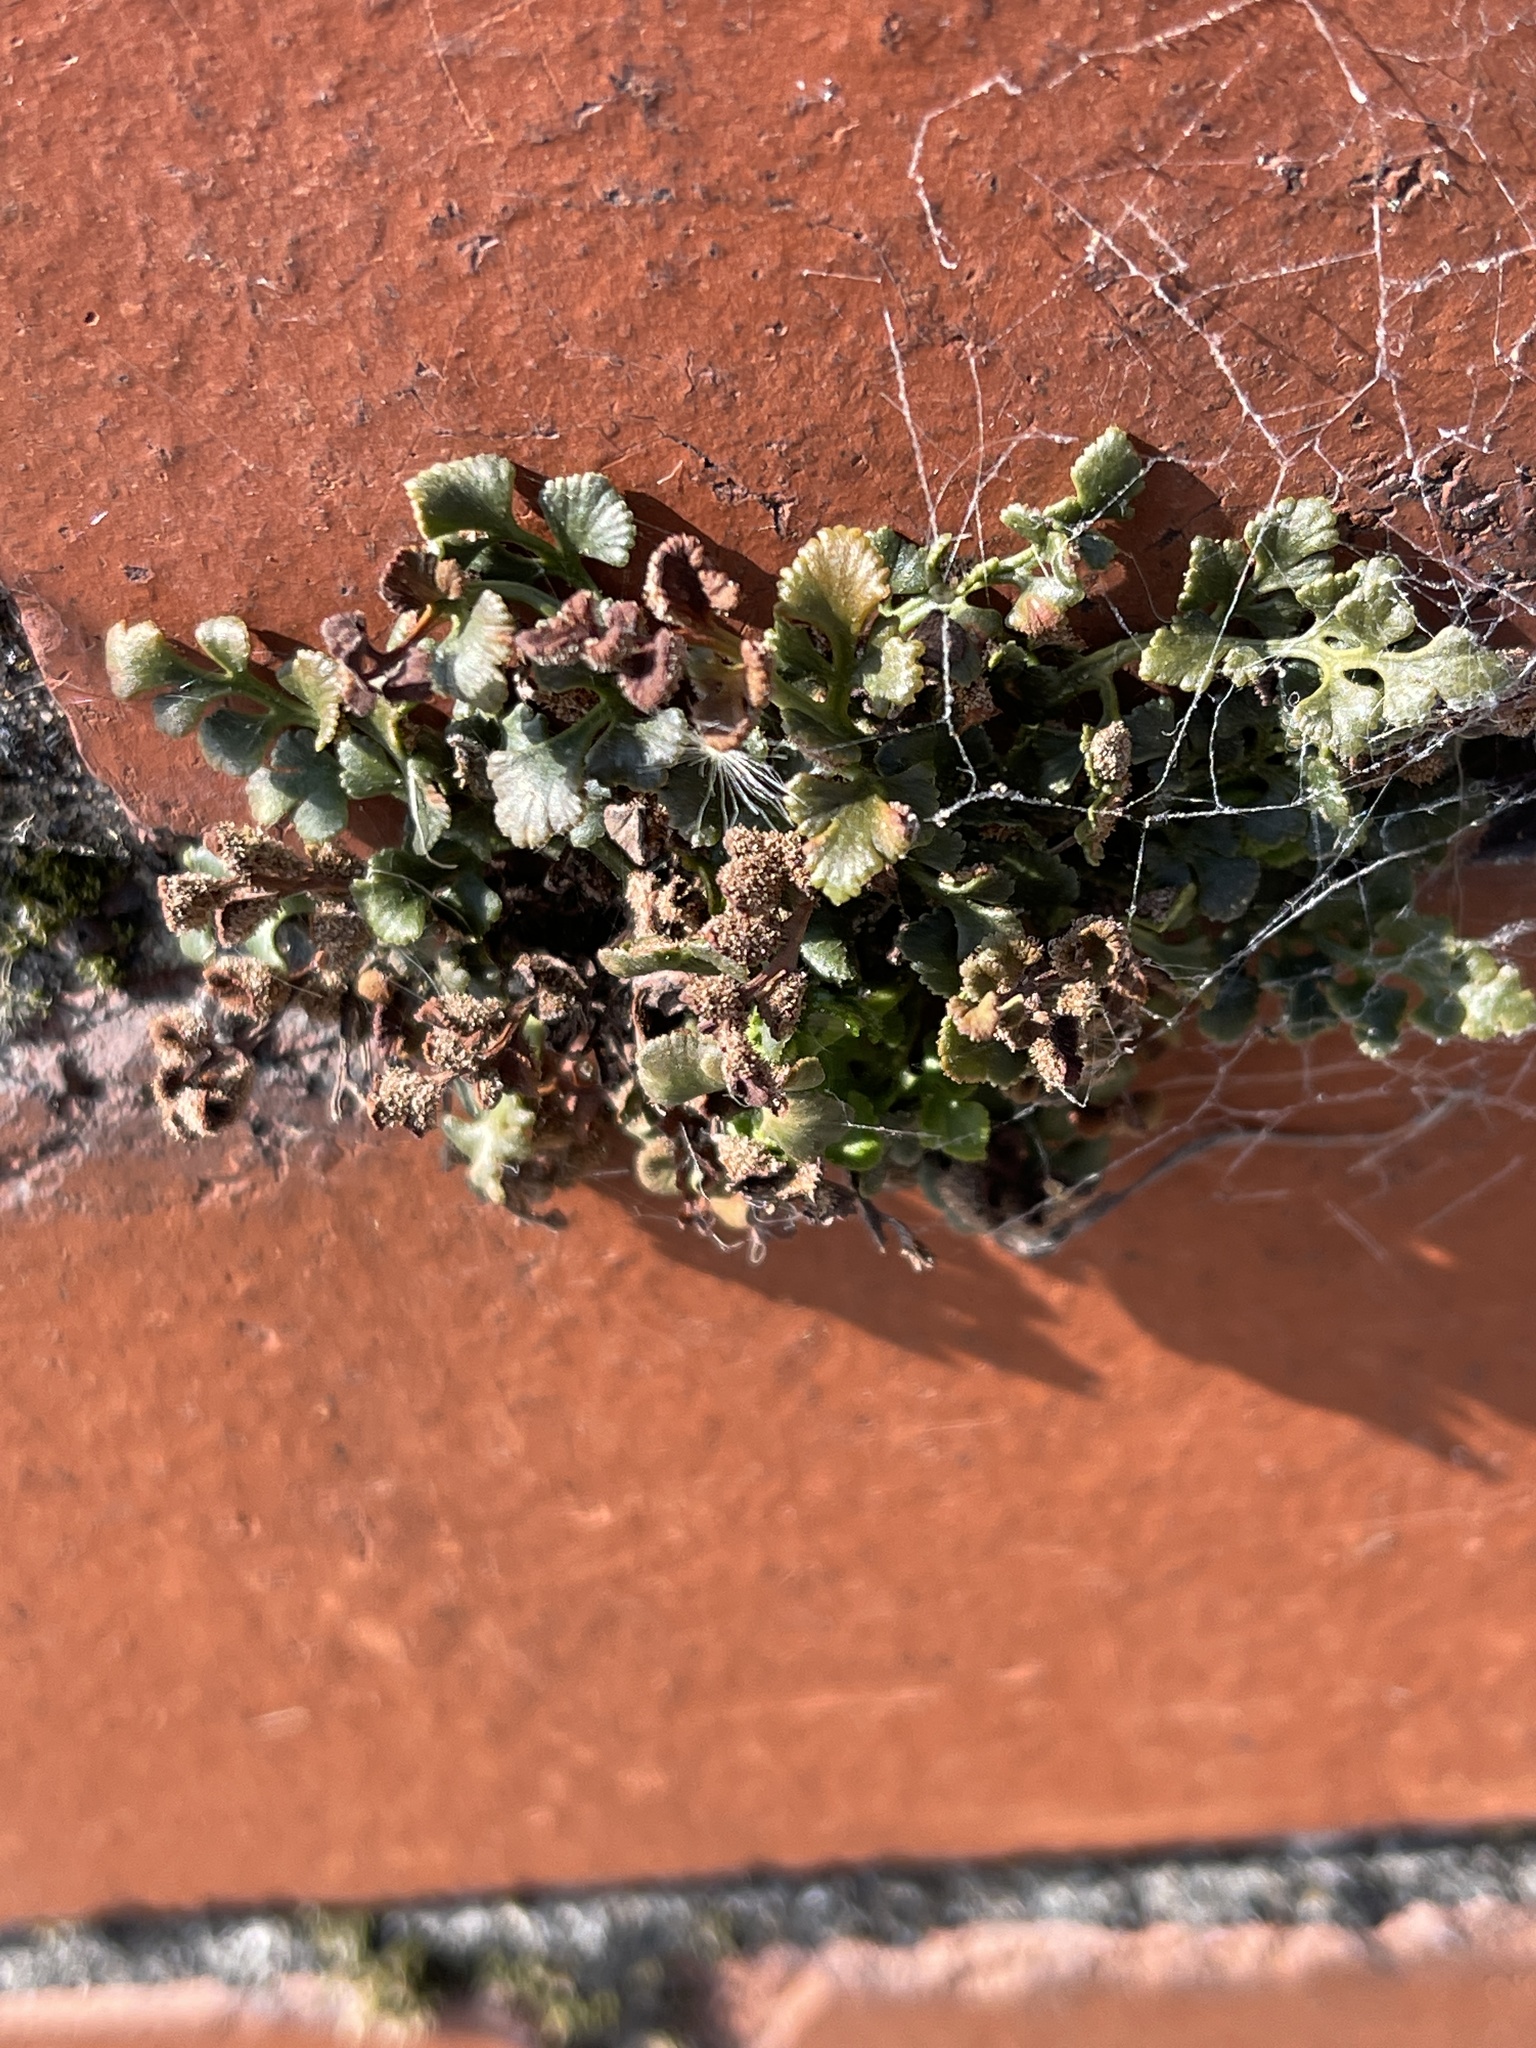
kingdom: Plantae
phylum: Tracheophyta
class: Polypodiopsida
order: Polypodiales
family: Aspleniaceae
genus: Asplenium
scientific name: Asplenium ruta-muraria
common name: Wall-rue
